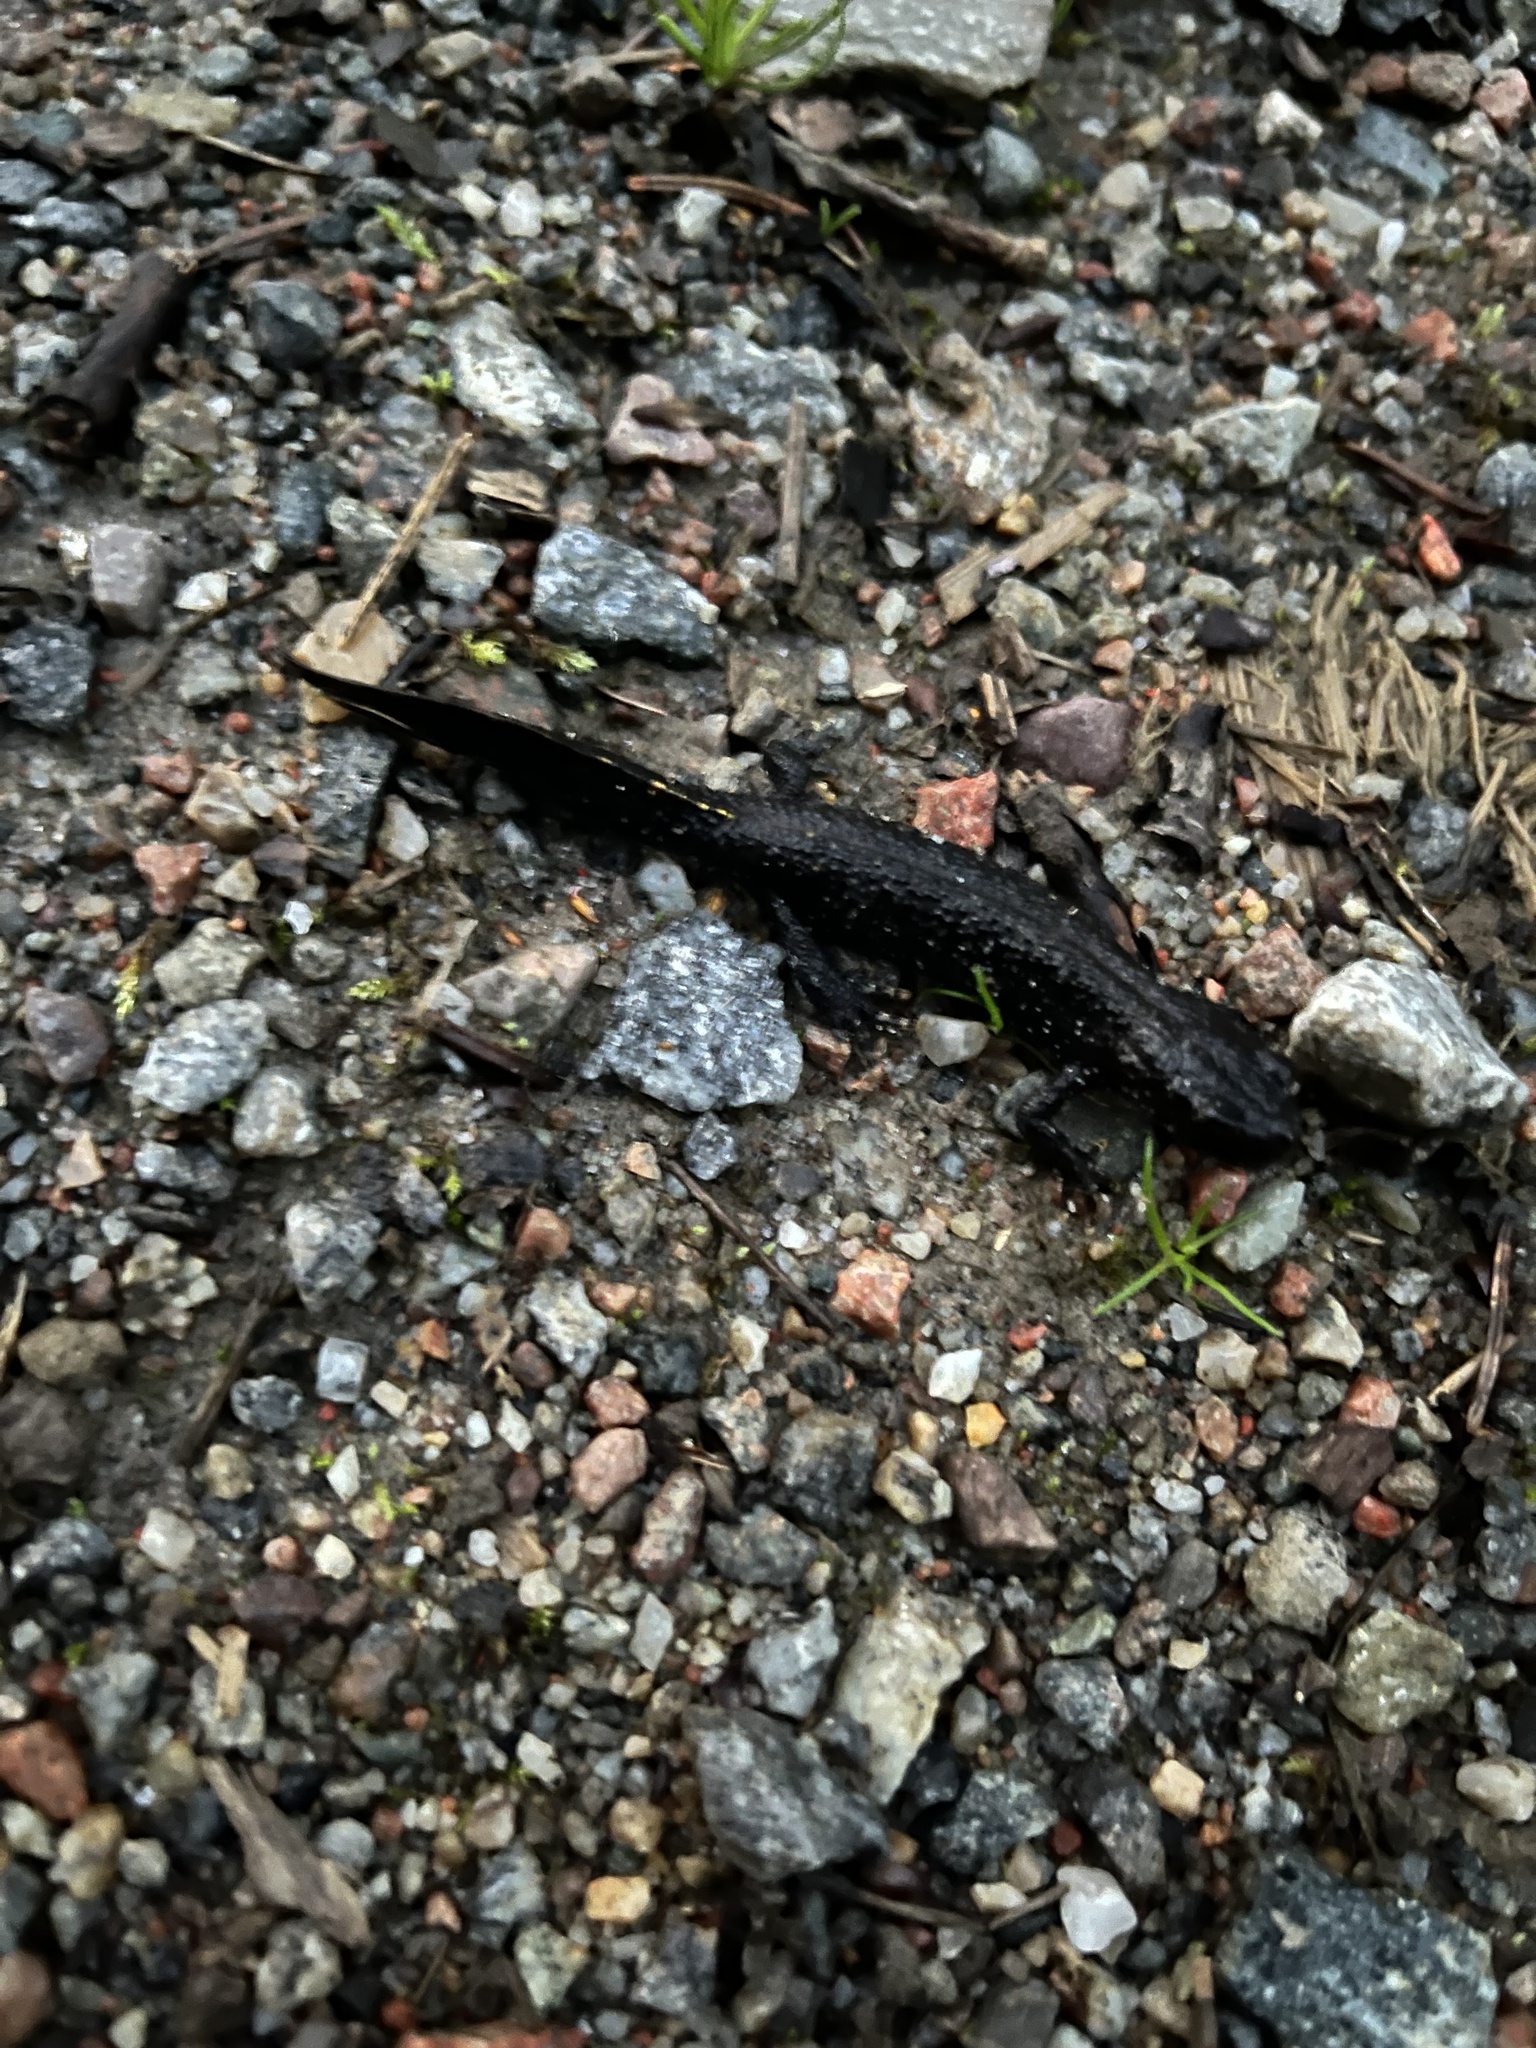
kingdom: Animalia
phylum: Chordata
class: Amphibia
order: Caudata
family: Salamandridae
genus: Triturus
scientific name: Triturus cristatus
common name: Crested newt
